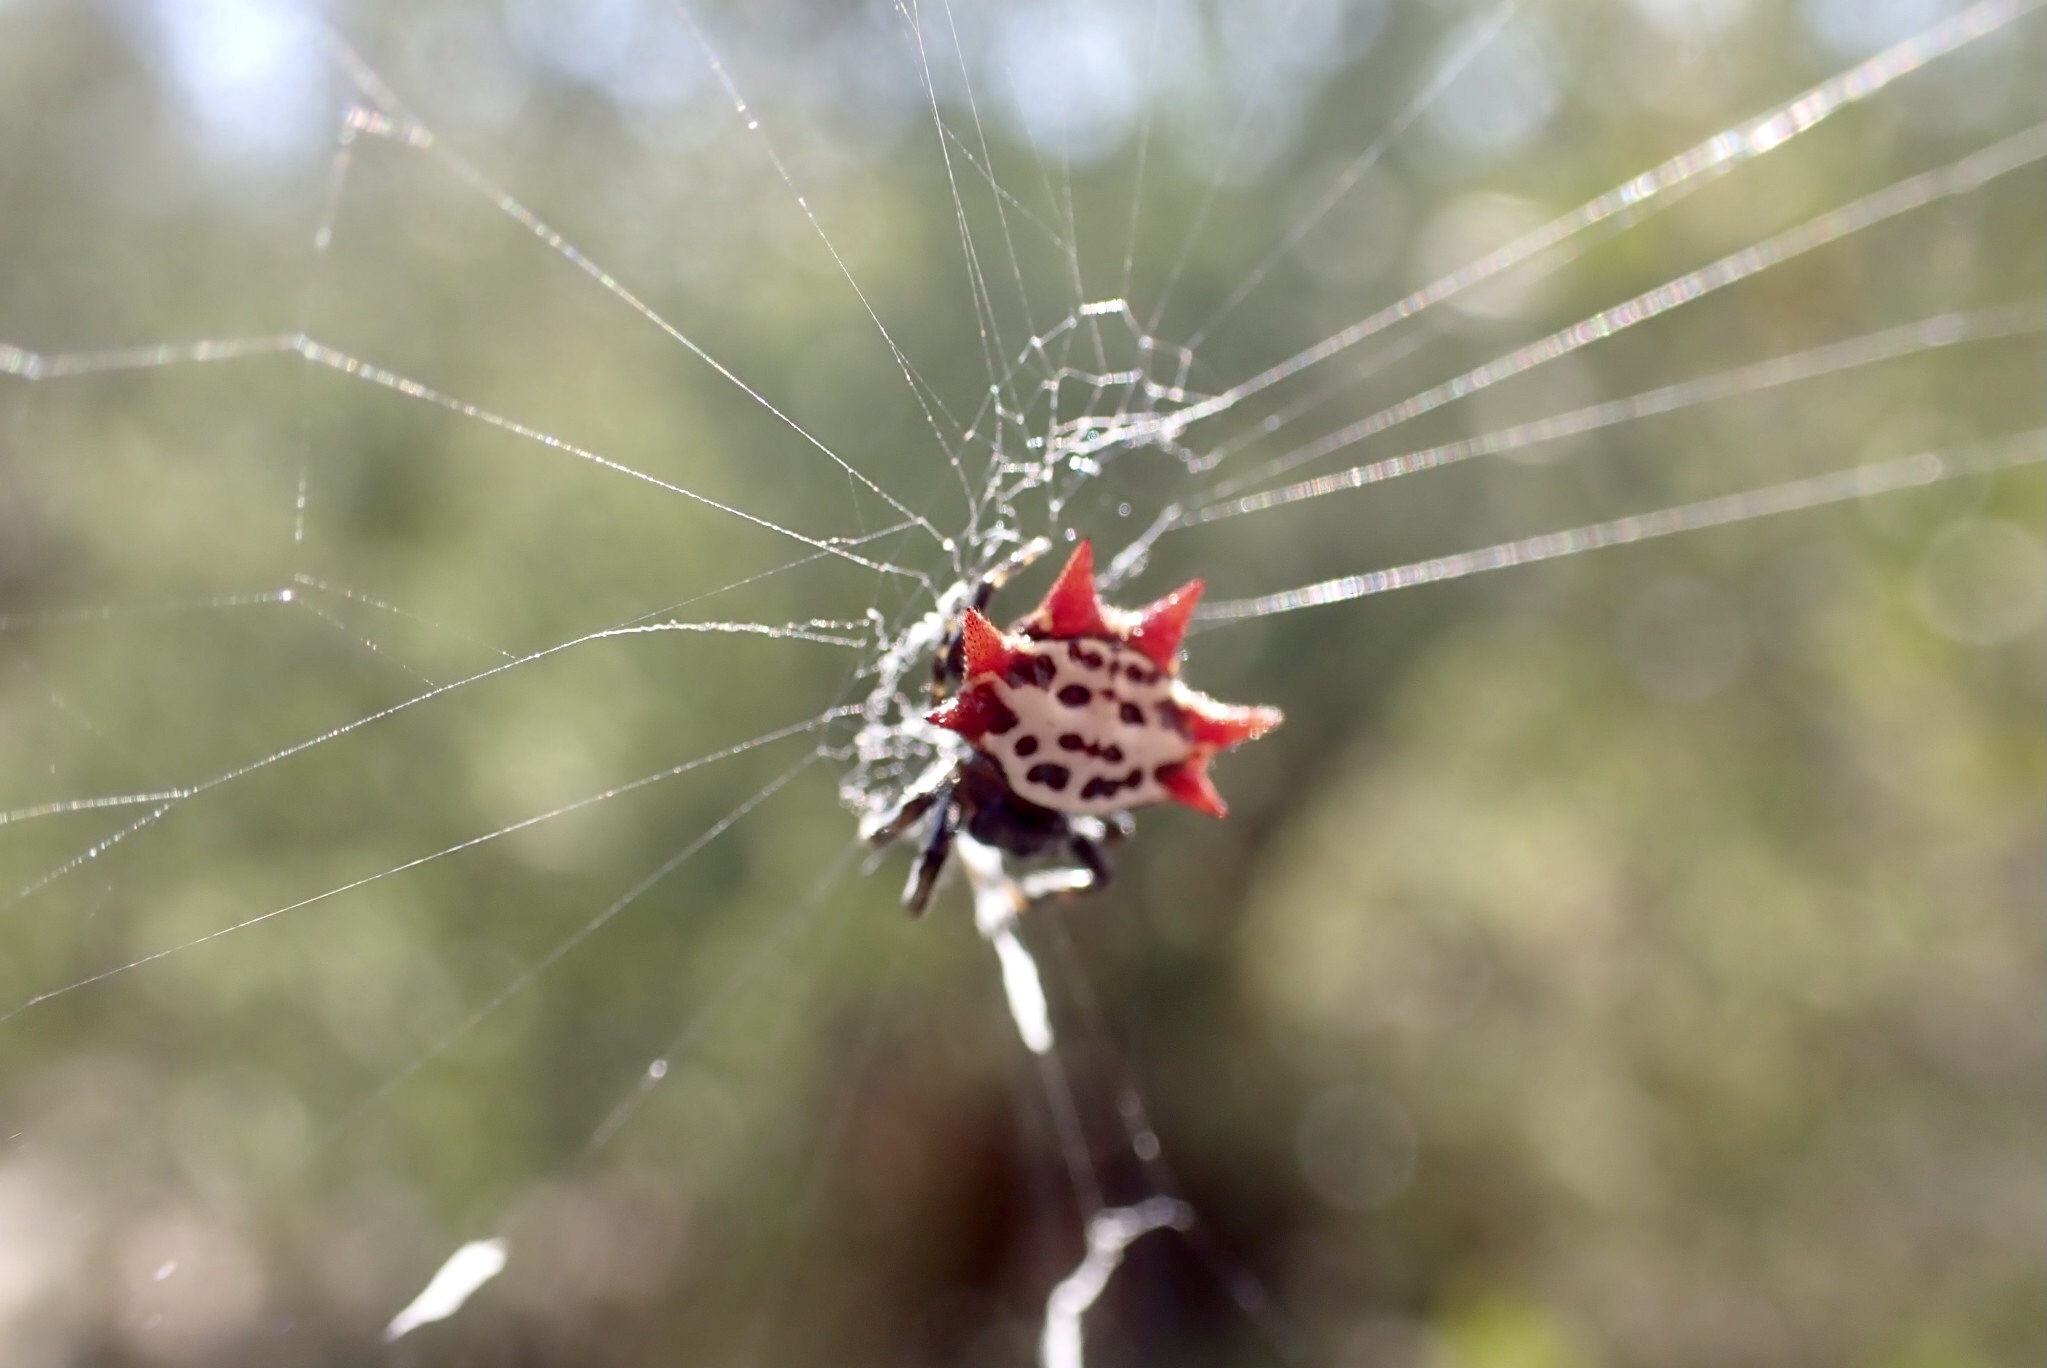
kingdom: Animalia
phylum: Arthropoda
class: Arachnida
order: Araneae
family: Araneidae
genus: Gasteracantha
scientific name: Gasteracantha cancriformis
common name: Orb weavers
